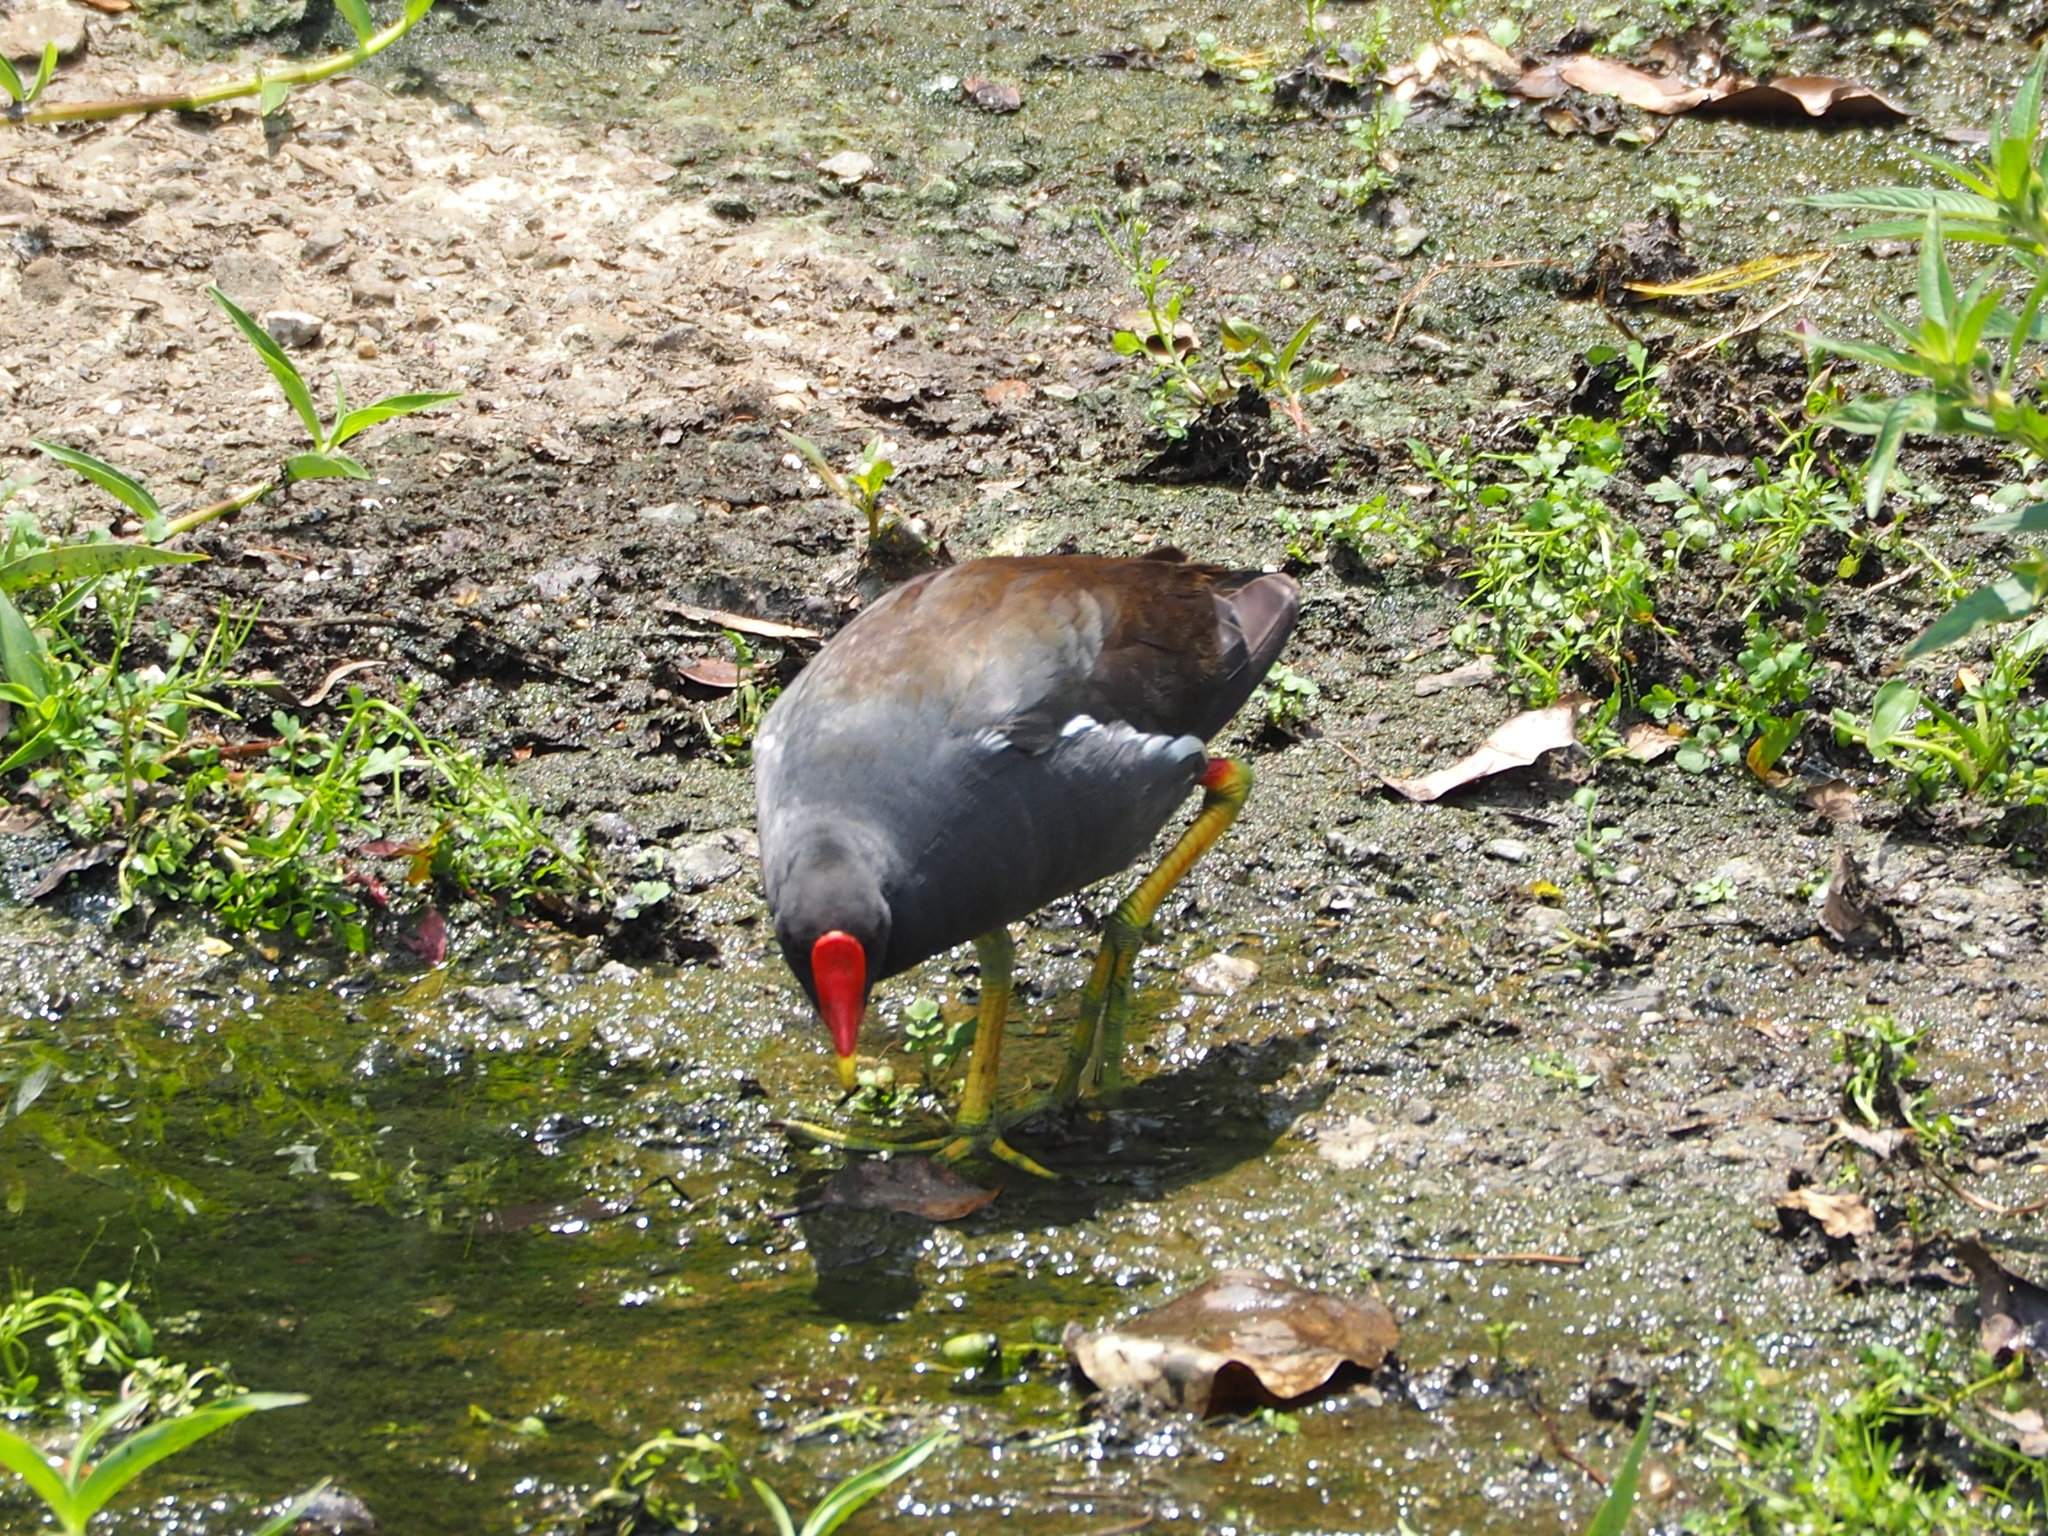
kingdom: Animalia
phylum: Chordata
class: Aves
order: Gruiformes
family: Rallidae
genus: Gallinula
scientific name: Gallinula chloropus
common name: Common moorhen
